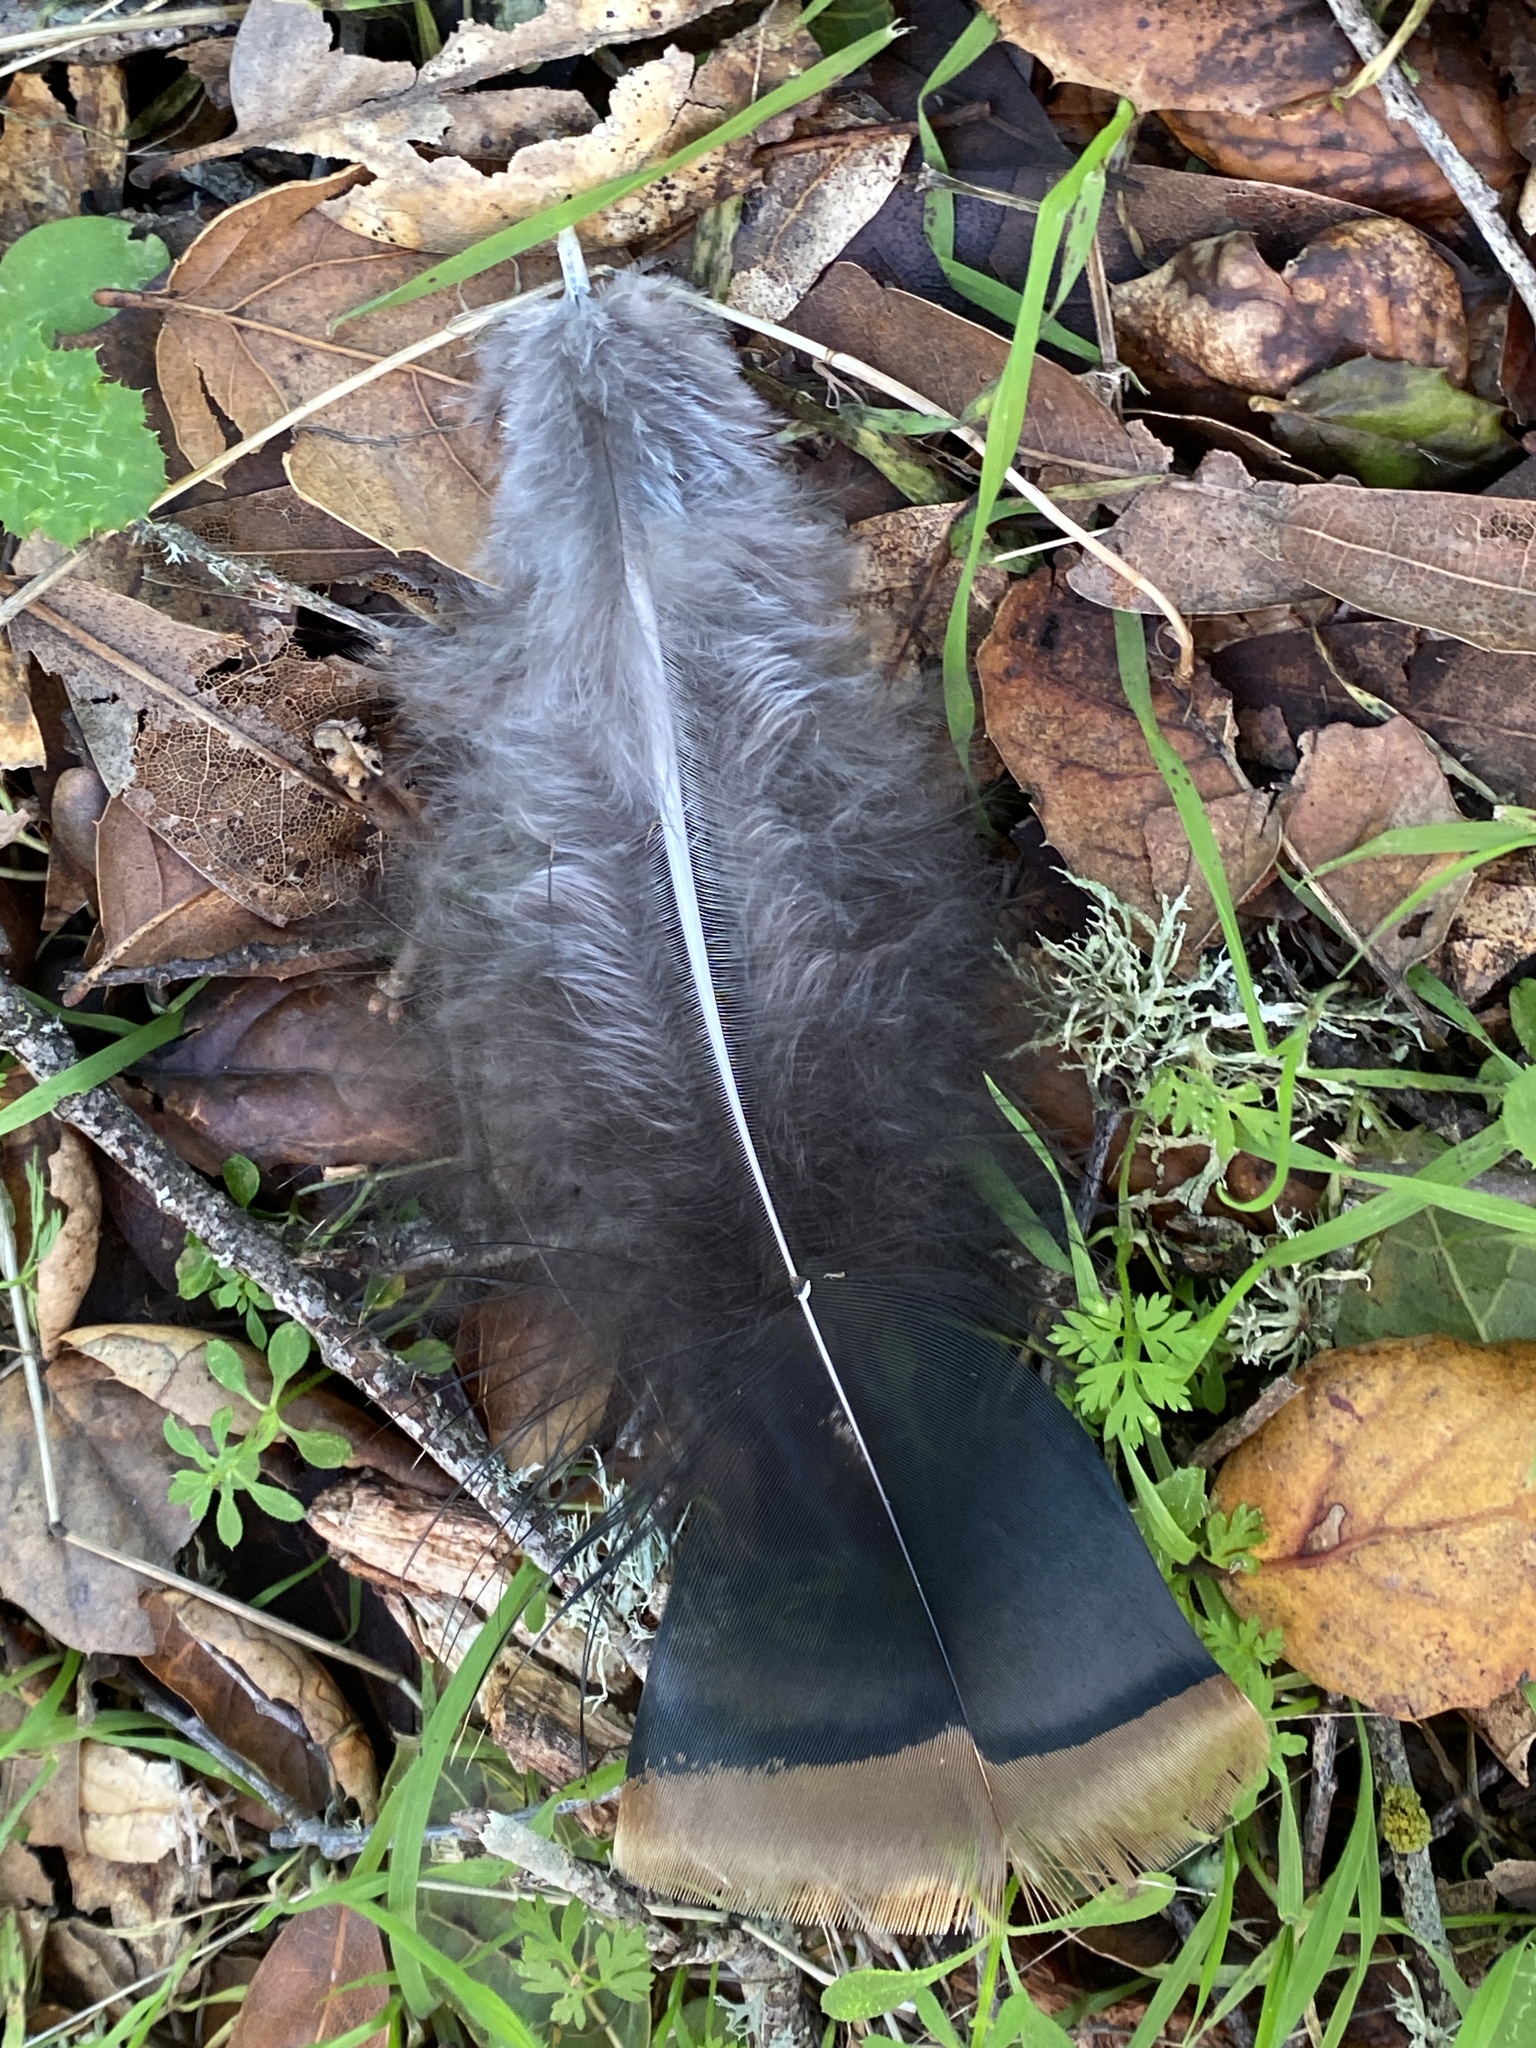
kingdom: Animalia
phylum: Chordata
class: Aves
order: Galliformes
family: Phasianidae
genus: Meleagris
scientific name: Meleagris gallopavo
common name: Wild turkey
